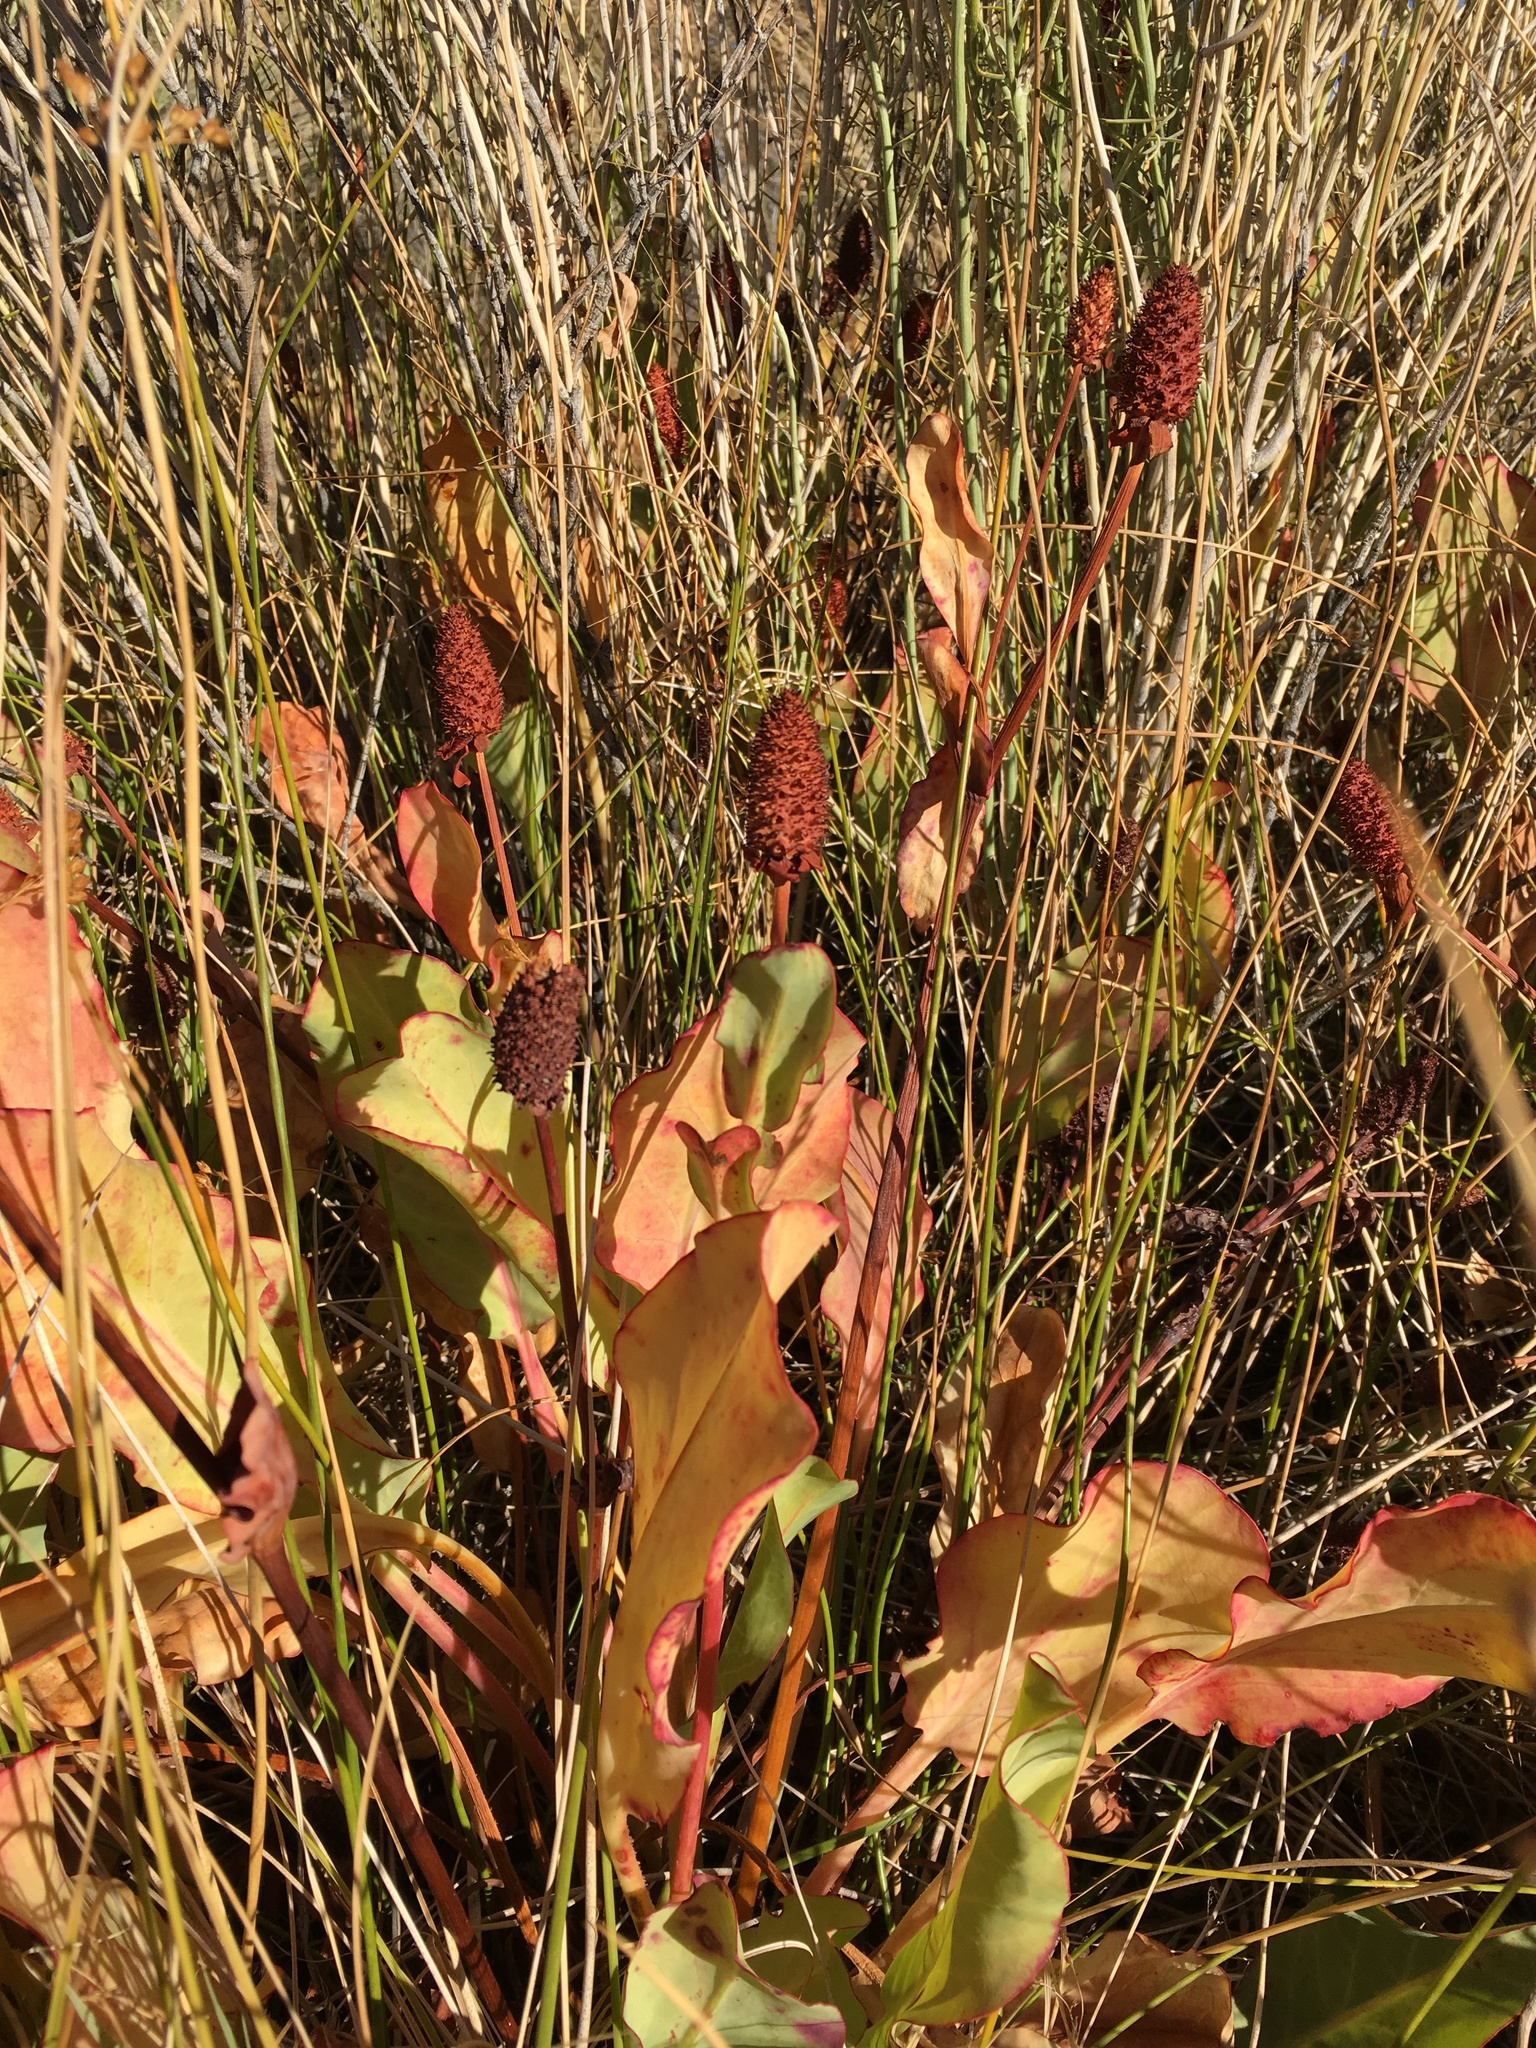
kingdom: Plantae
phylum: Tracheophyta
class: Magnoliopsida
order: Piperales
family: Saururaceae
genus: Anemopsis
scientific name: Anemopsis californica
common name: Apache-beads
